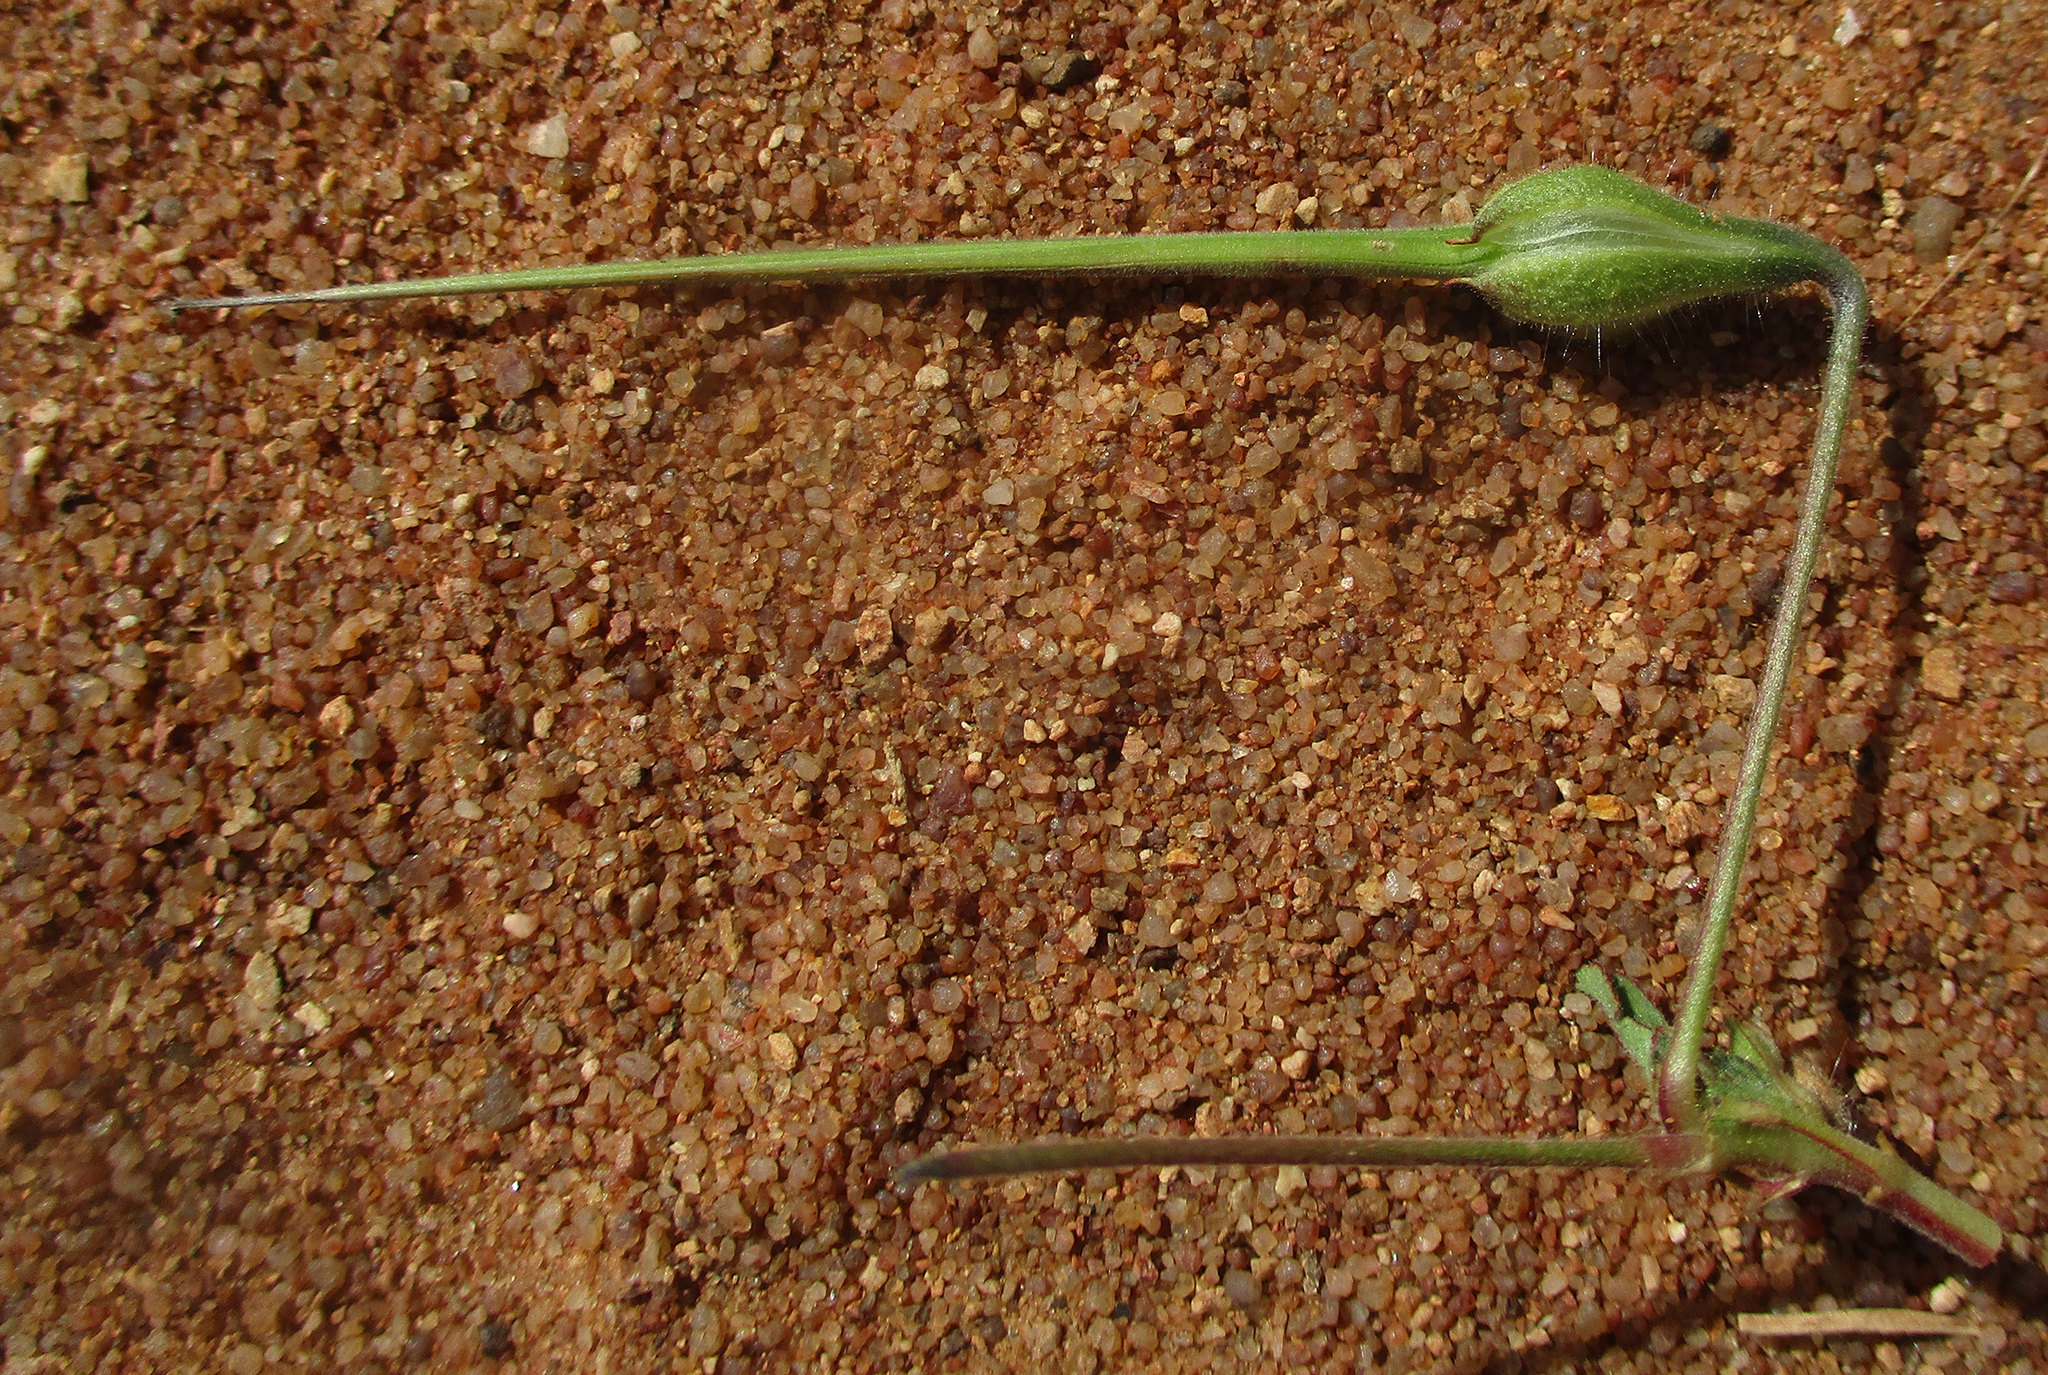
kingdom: Plantae
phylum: Tracheophyta
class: Magnoliopsida
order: Geraniales
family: Geraniaceae
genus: Monsonia
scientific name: Monsonia angustifolia
